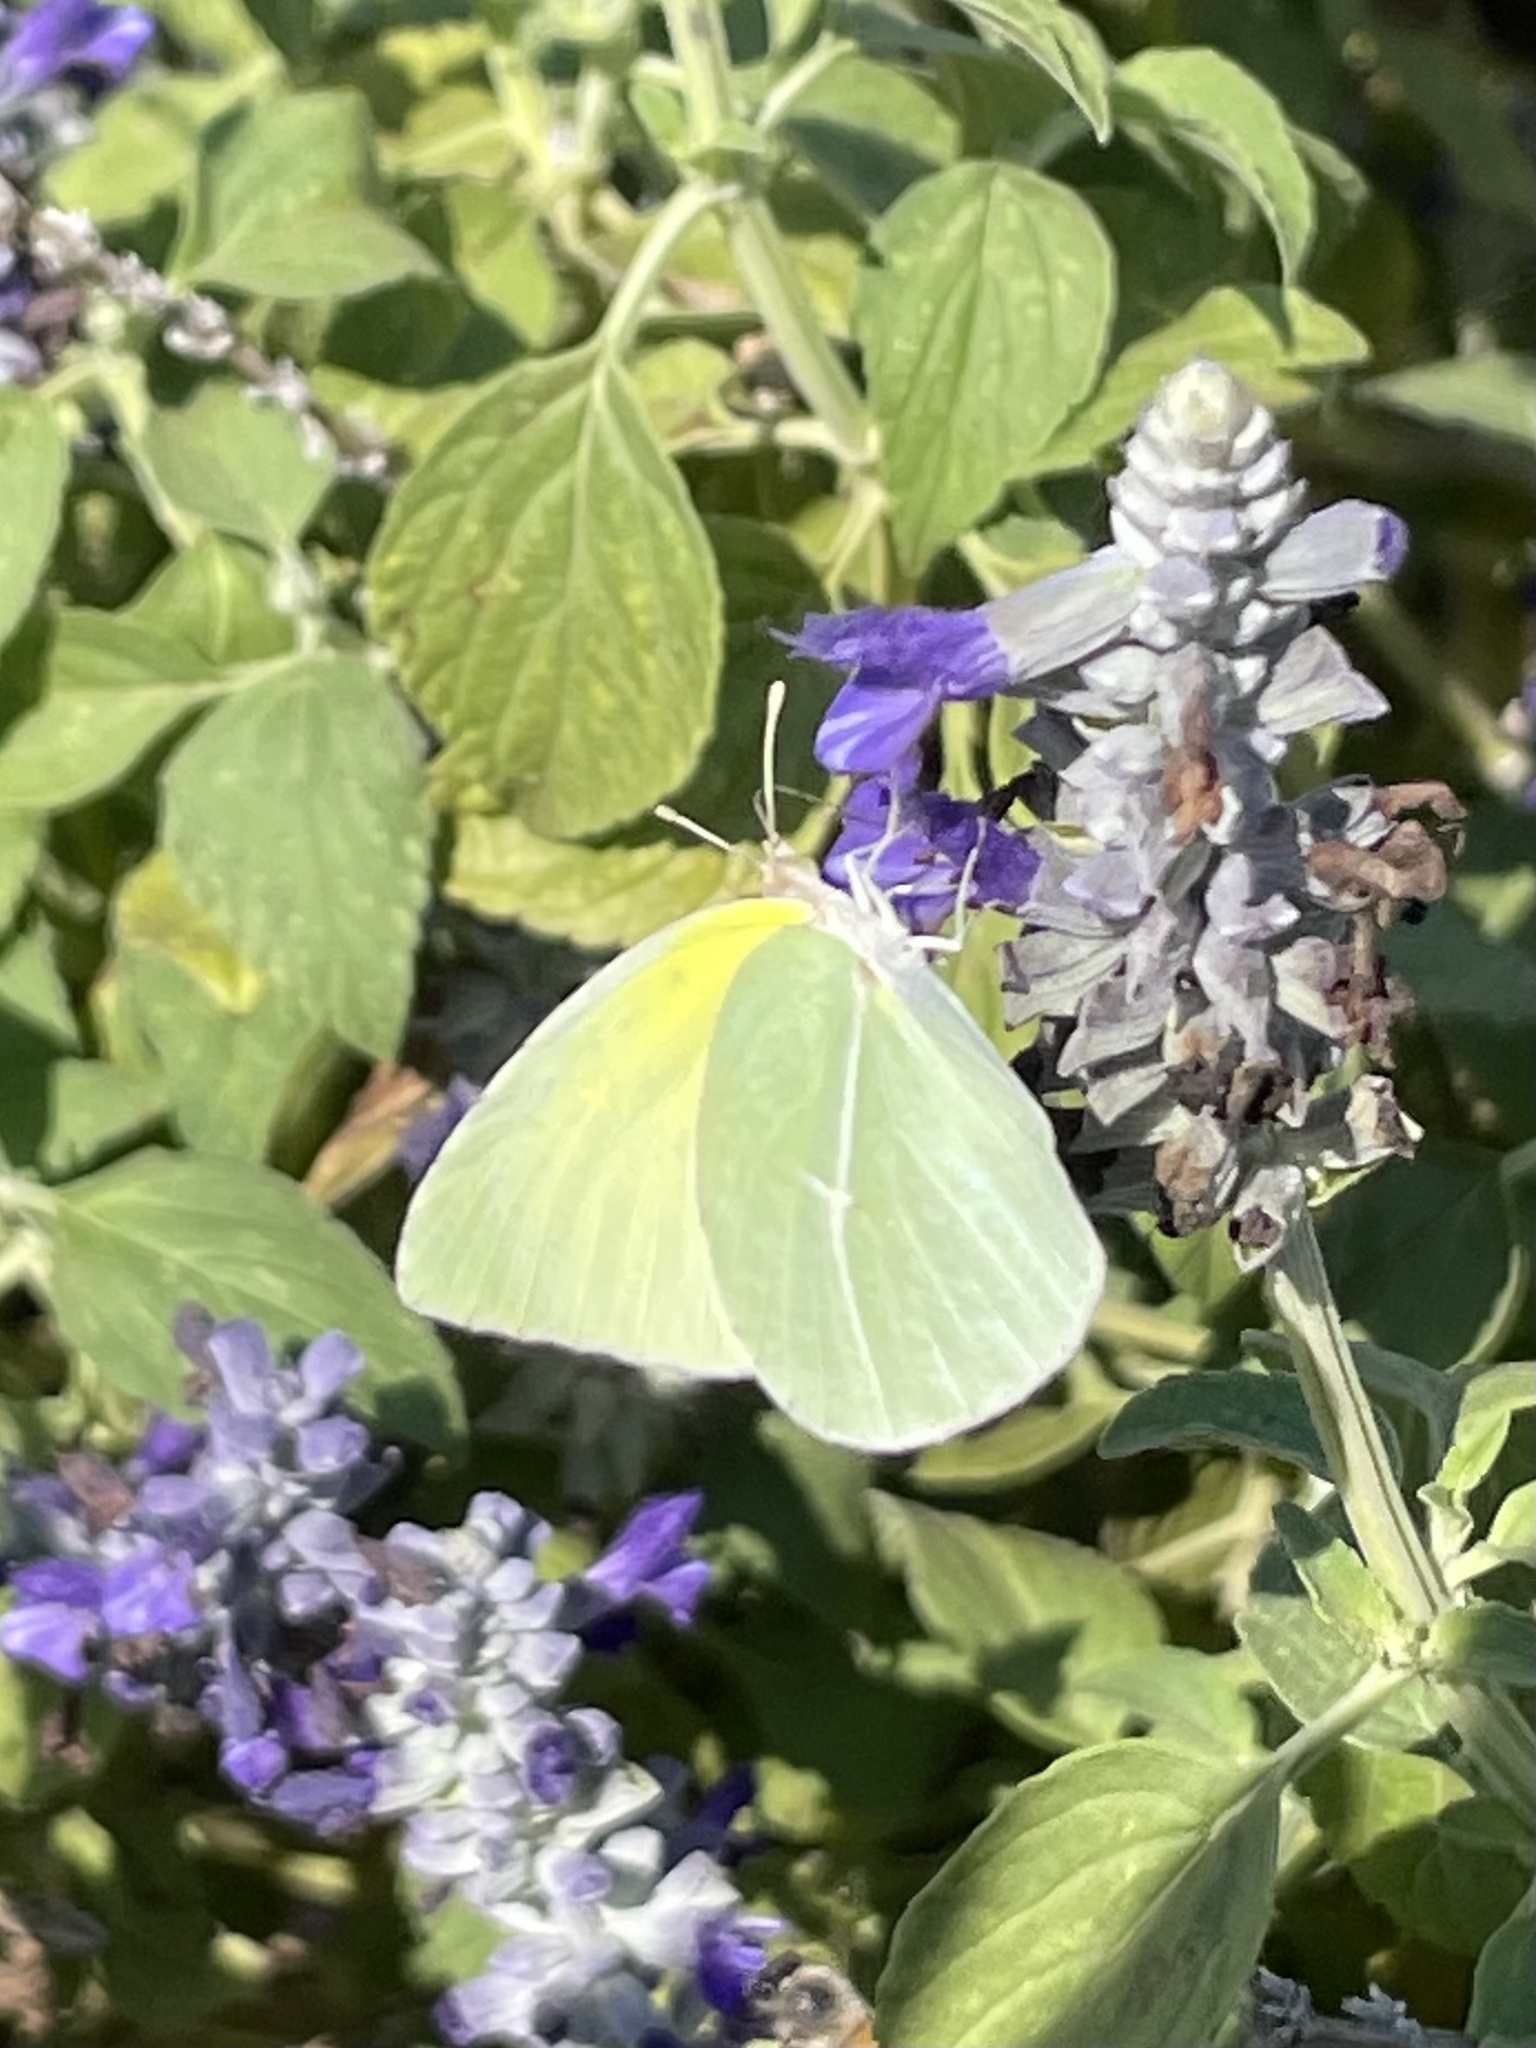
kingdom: Animalia
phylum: Arthropoda
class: Insecta
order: Lepidoptera
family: Pieridae
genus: Kricogonia
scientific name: Kricogonia lyside
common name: Guayacan sulphur,
